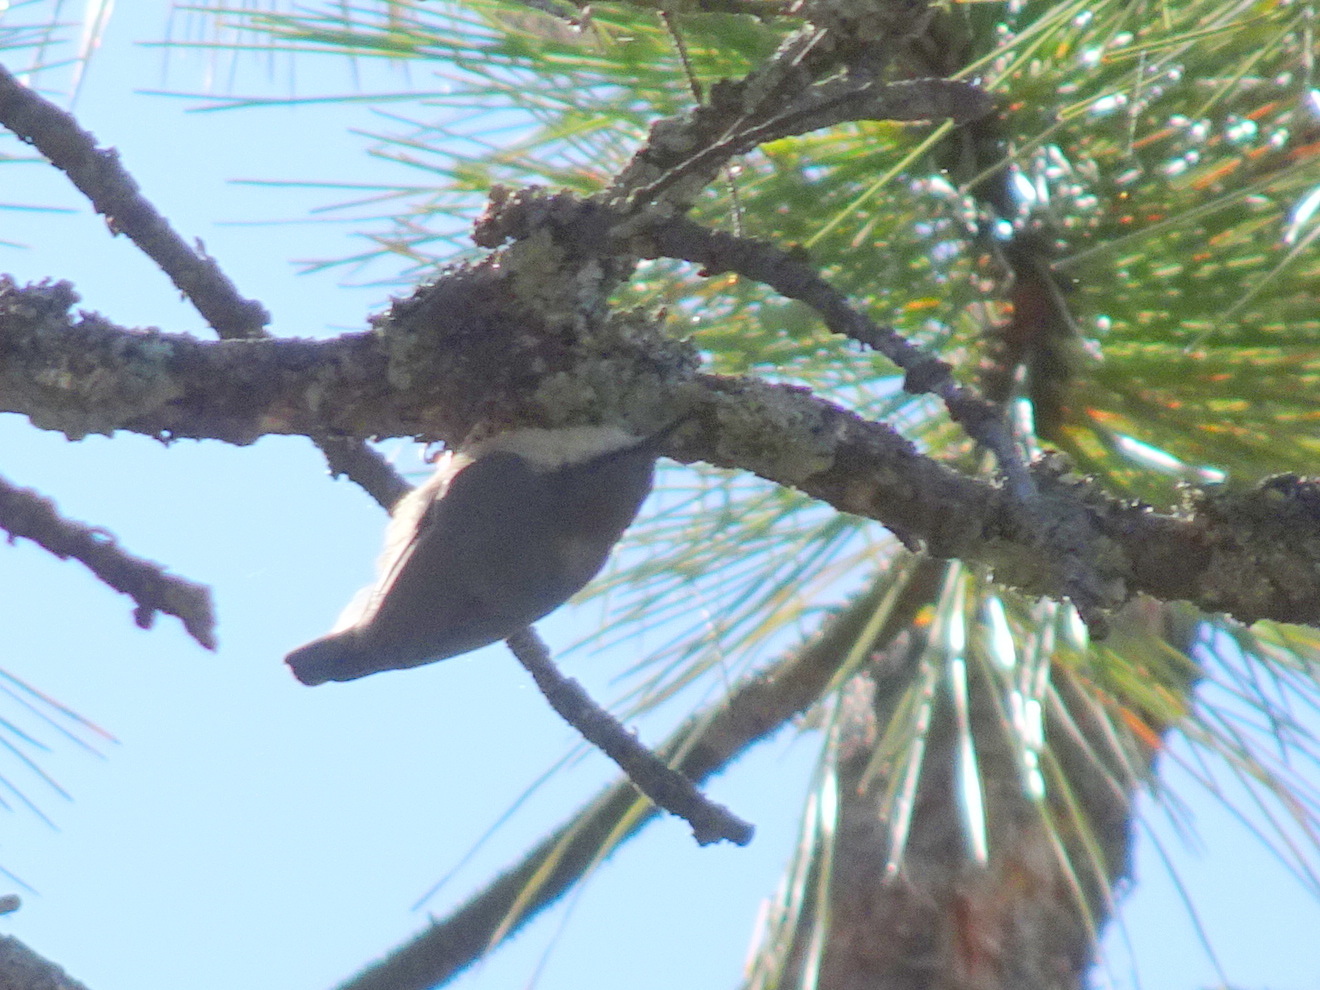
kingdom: Animalia
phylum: Chordata
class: Aves
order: Passeriformes
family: Sittidae
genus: Sitta
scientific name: Sitta pygmaea
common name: Pygmy nuthatch
